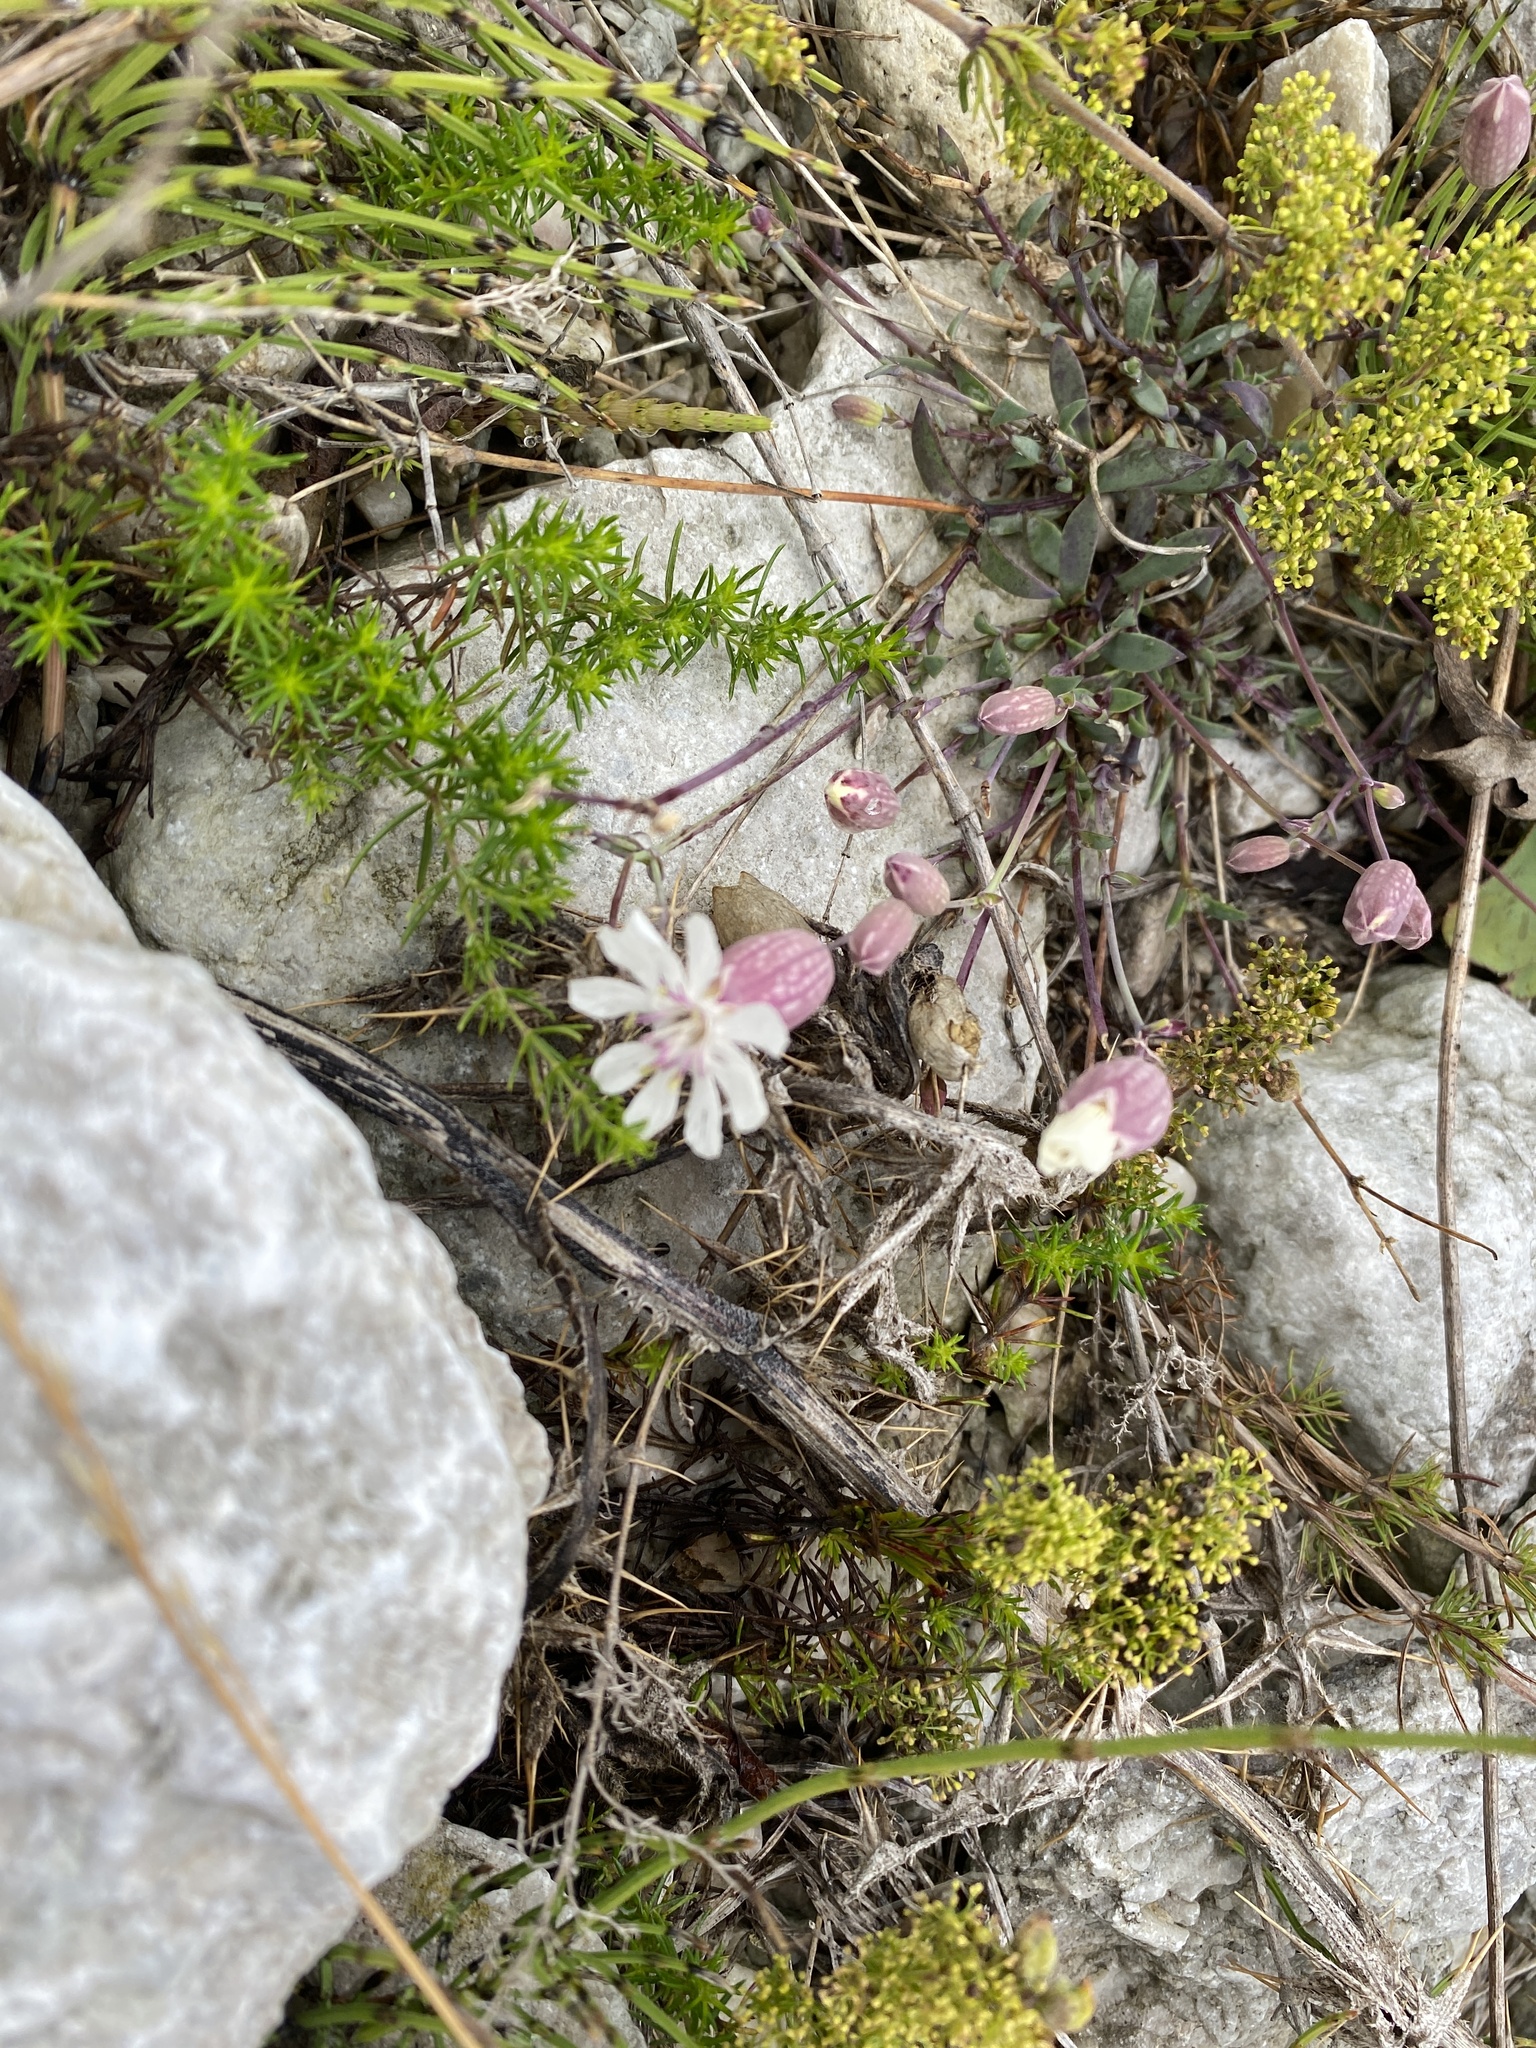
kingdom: Plantae
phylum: Tracheophyta
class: Magnoliopsida
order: Caryophyllales
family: Caryophyllaceae
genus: Silene
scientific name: Silene uniflora
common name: Sea campion
